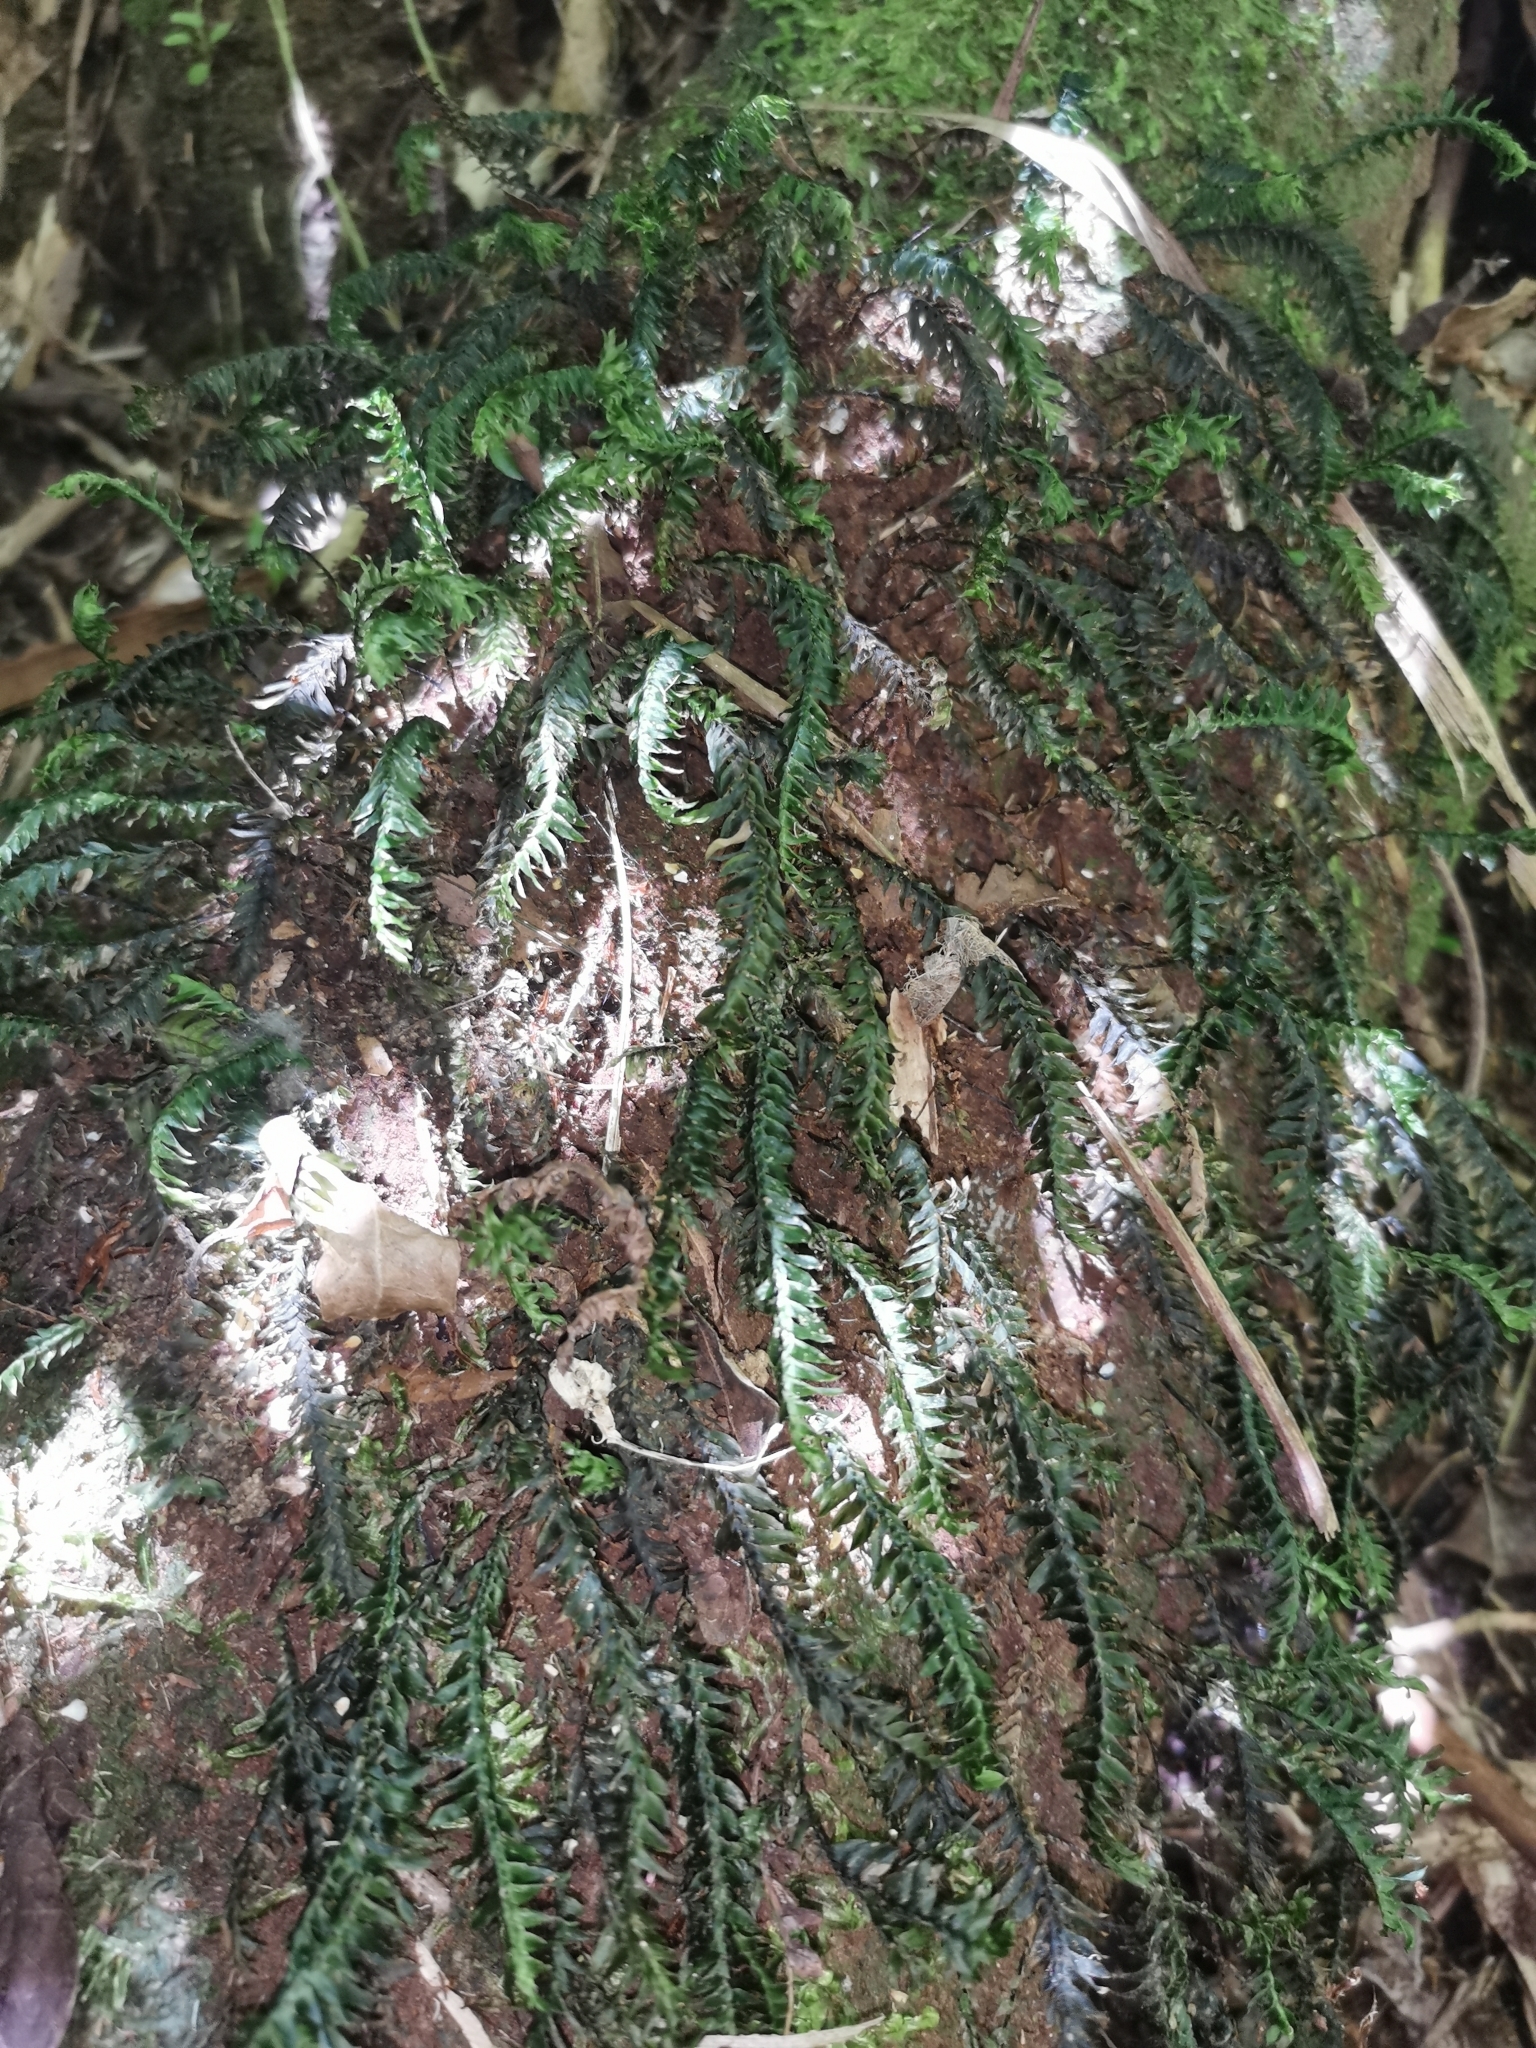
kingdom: Plantae
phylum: Bryophyta
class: Bryopsida
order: Hypopterygiales
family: Hypopterygiaceae
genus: Cyathophorum
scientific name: Cyathophorum bulbosum
